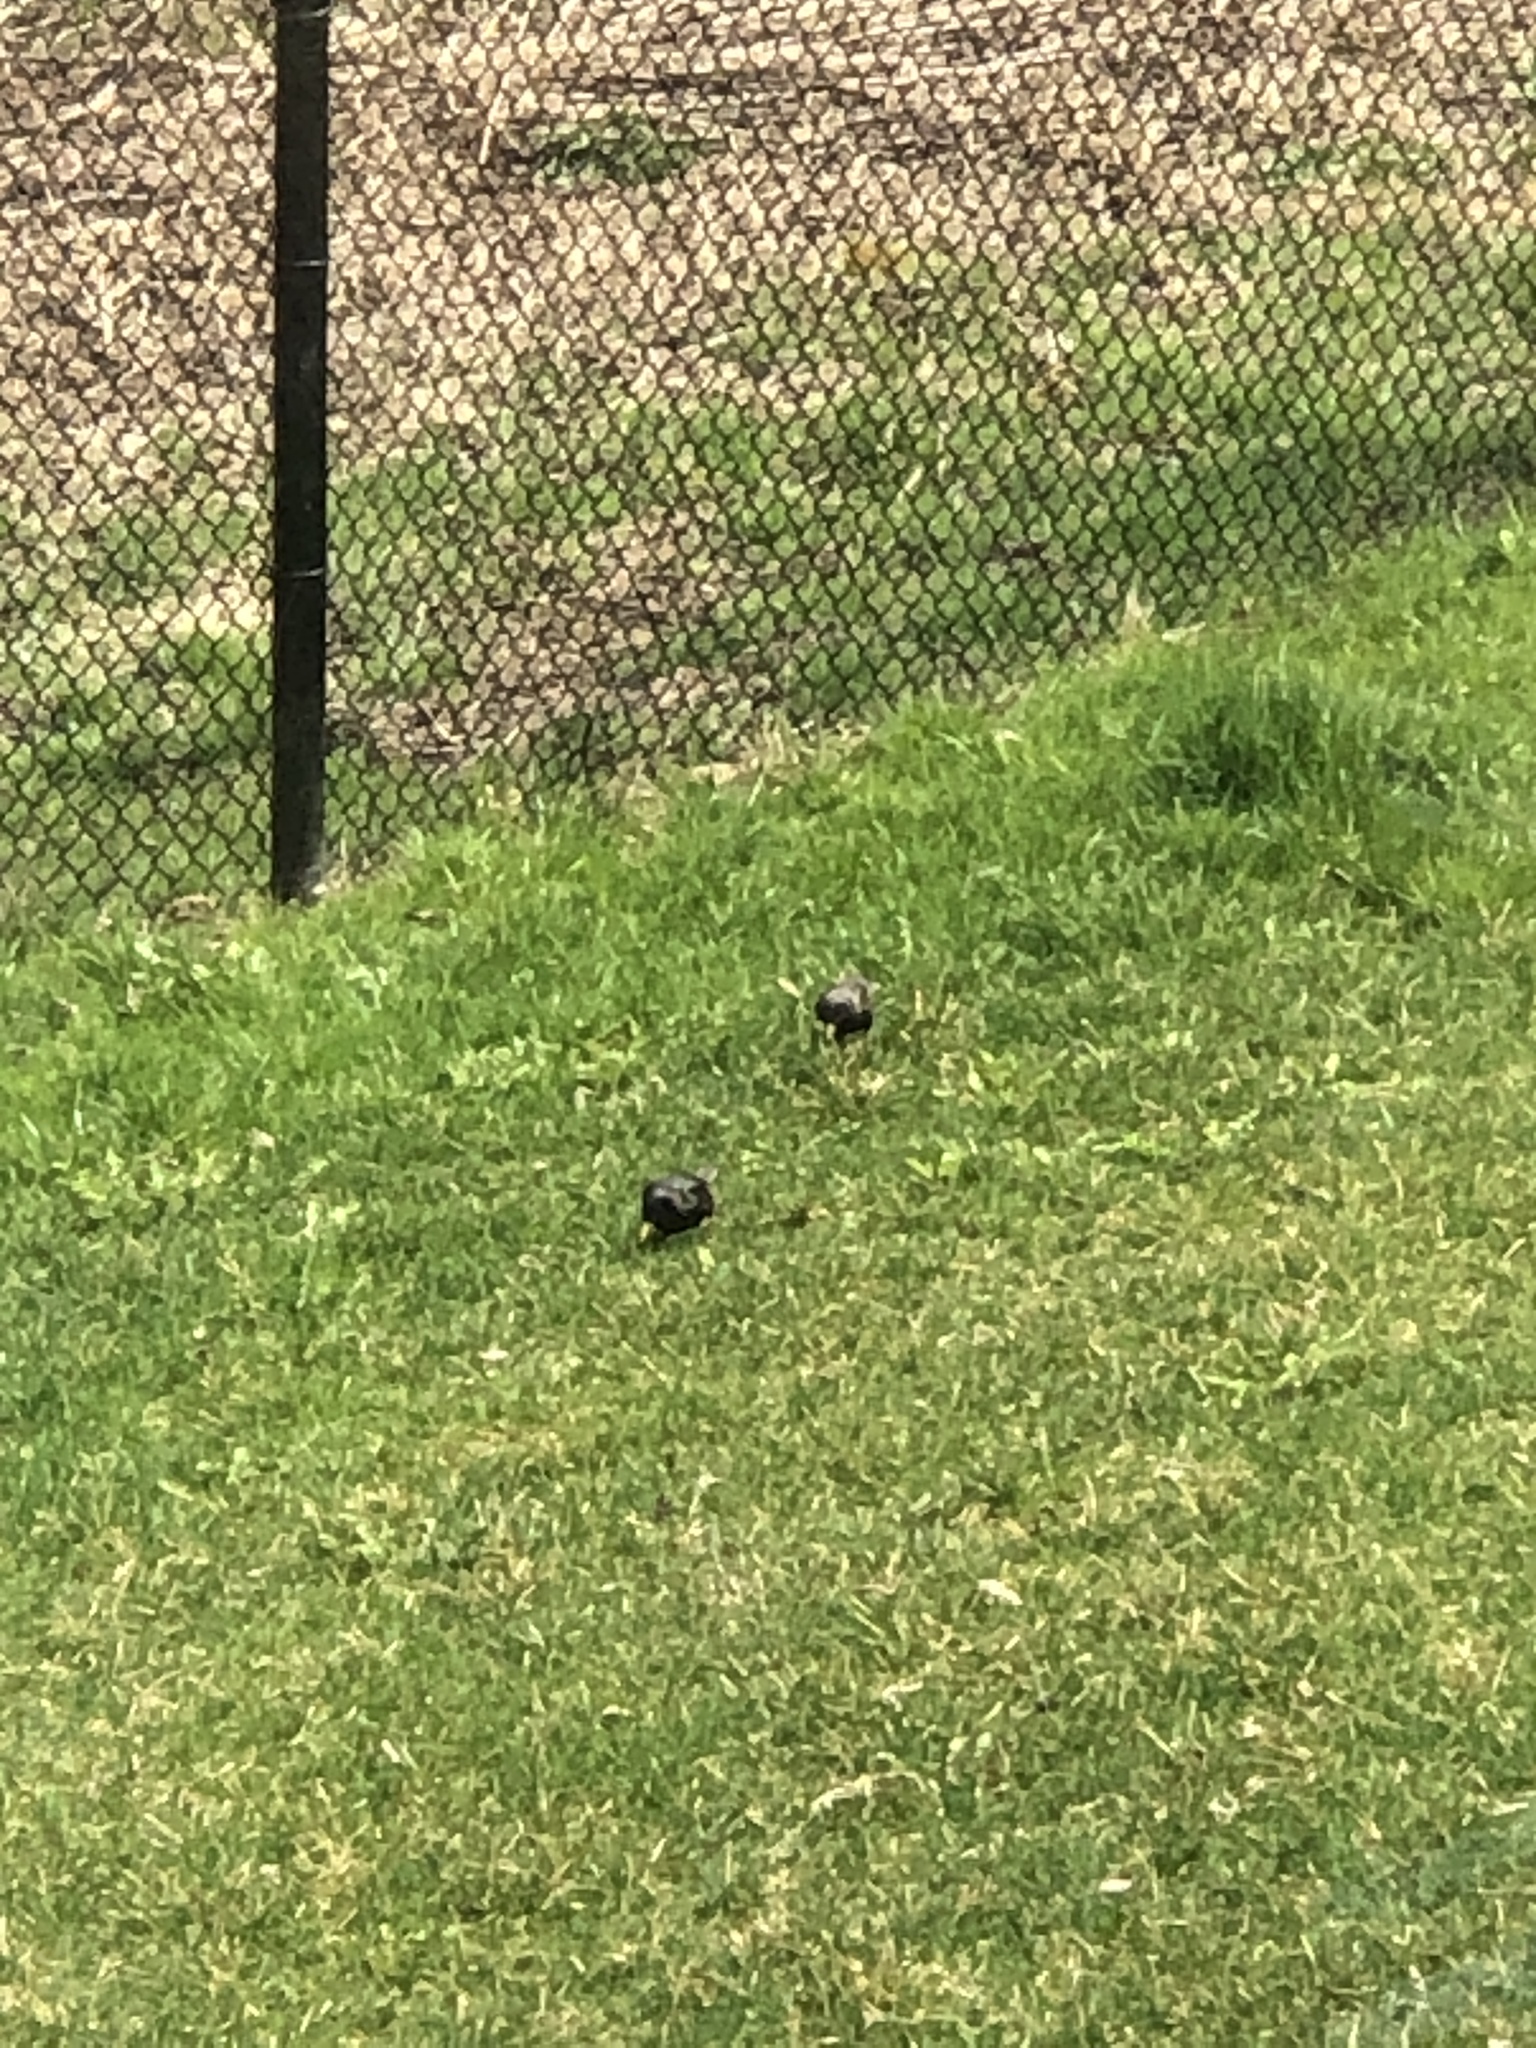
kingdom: Animalia
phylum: Chordata
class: Aves
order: Passeriformes
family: Sturnidae
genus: Sturnus
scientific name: Sturnus vulgaris
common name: Common starling
